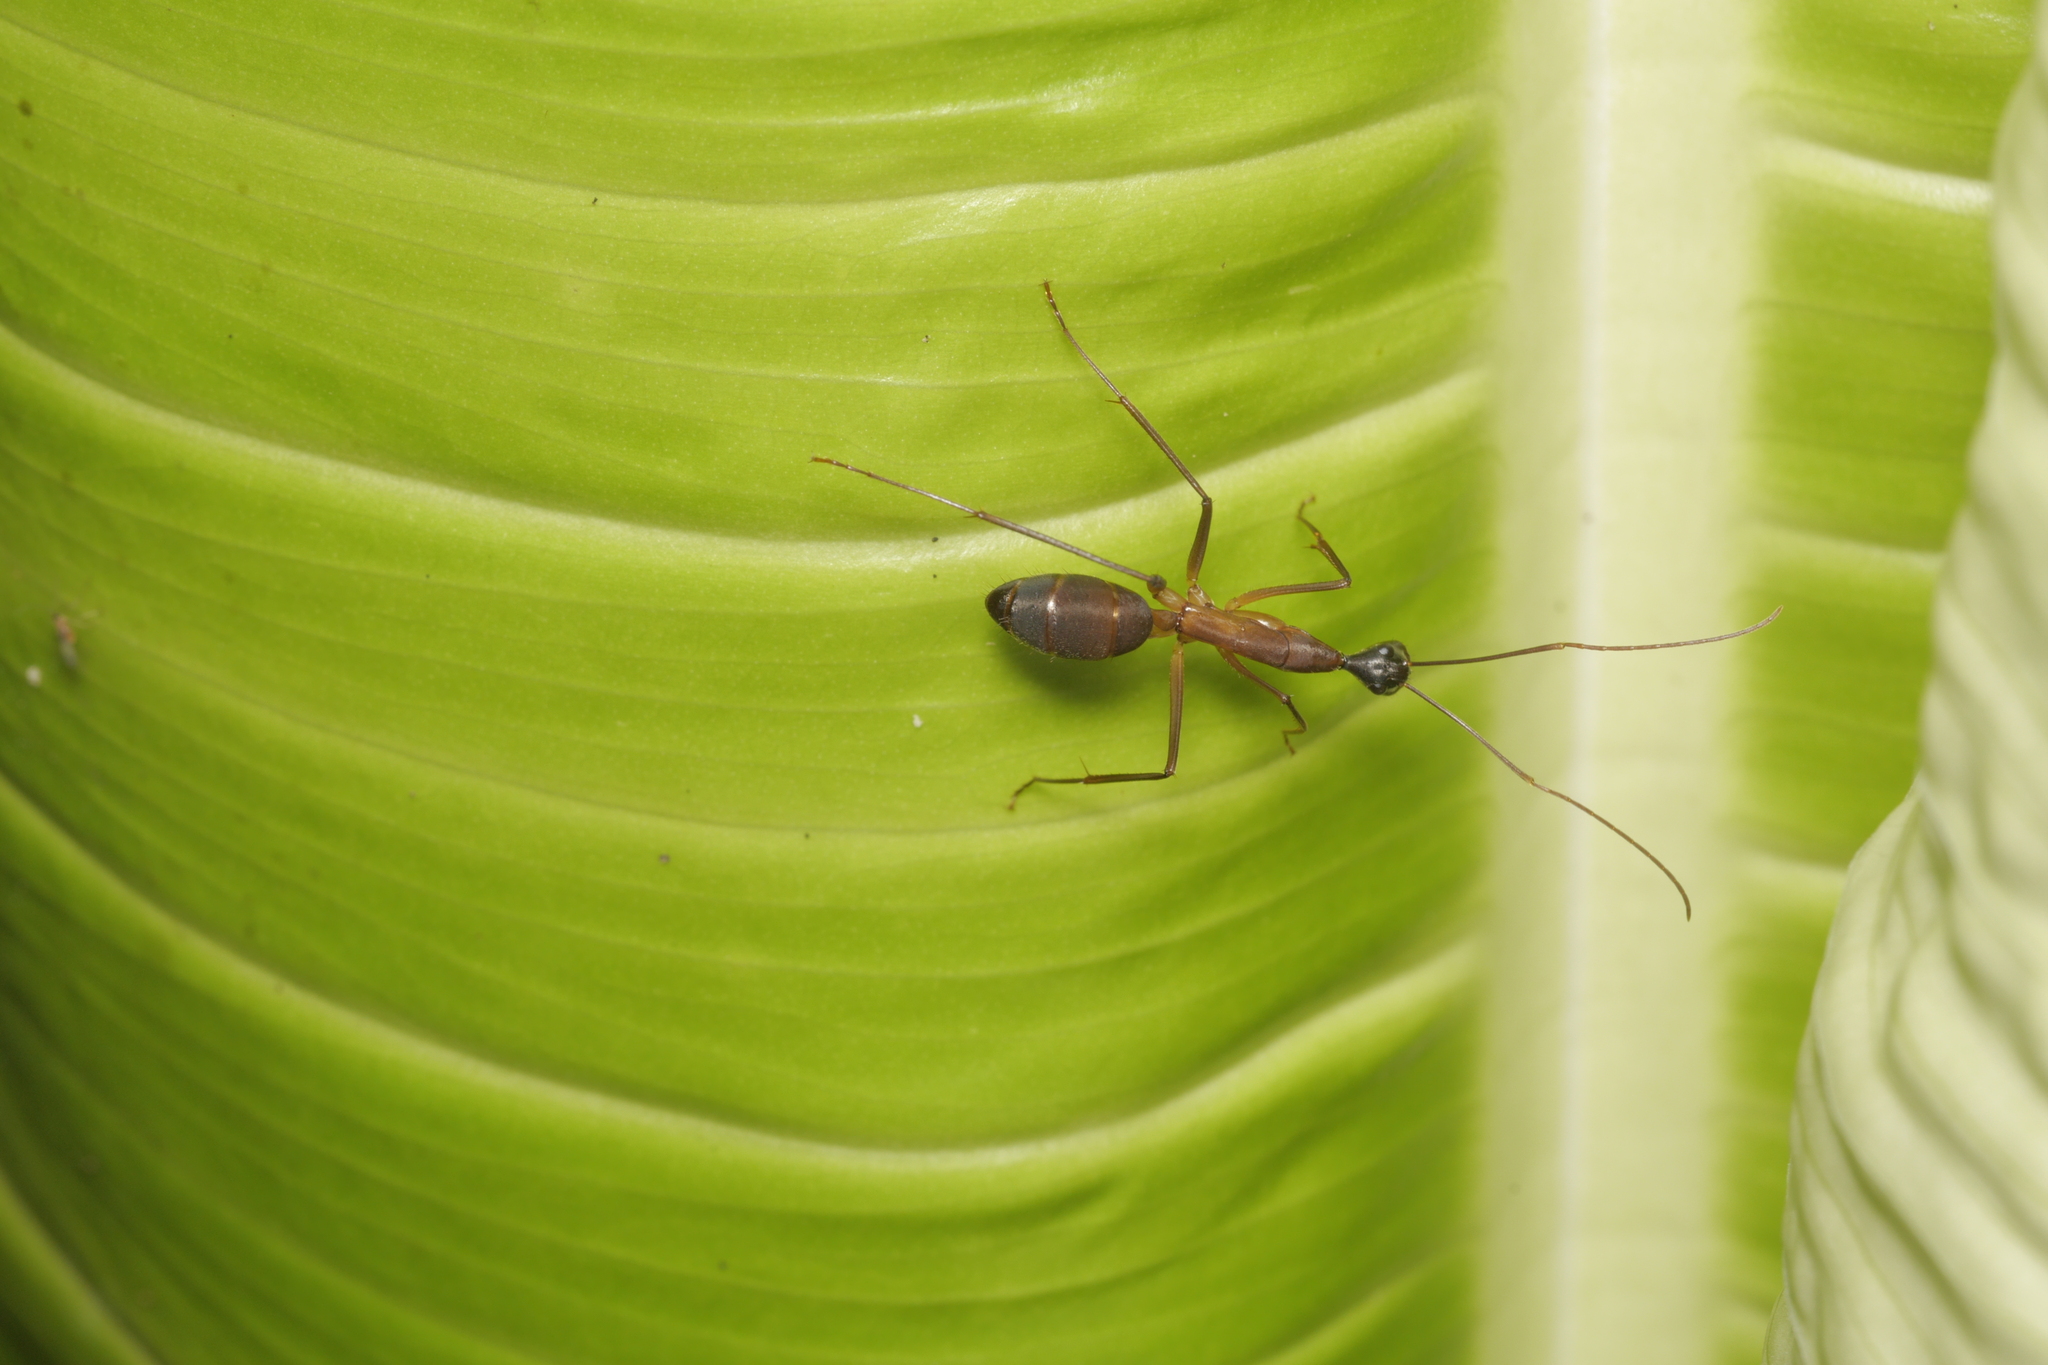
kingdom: Animalia
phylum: Arthropoda
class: Insecta
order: Hymenoptera
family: Formicidae
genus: Camponotus
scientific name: Camponotus ager
